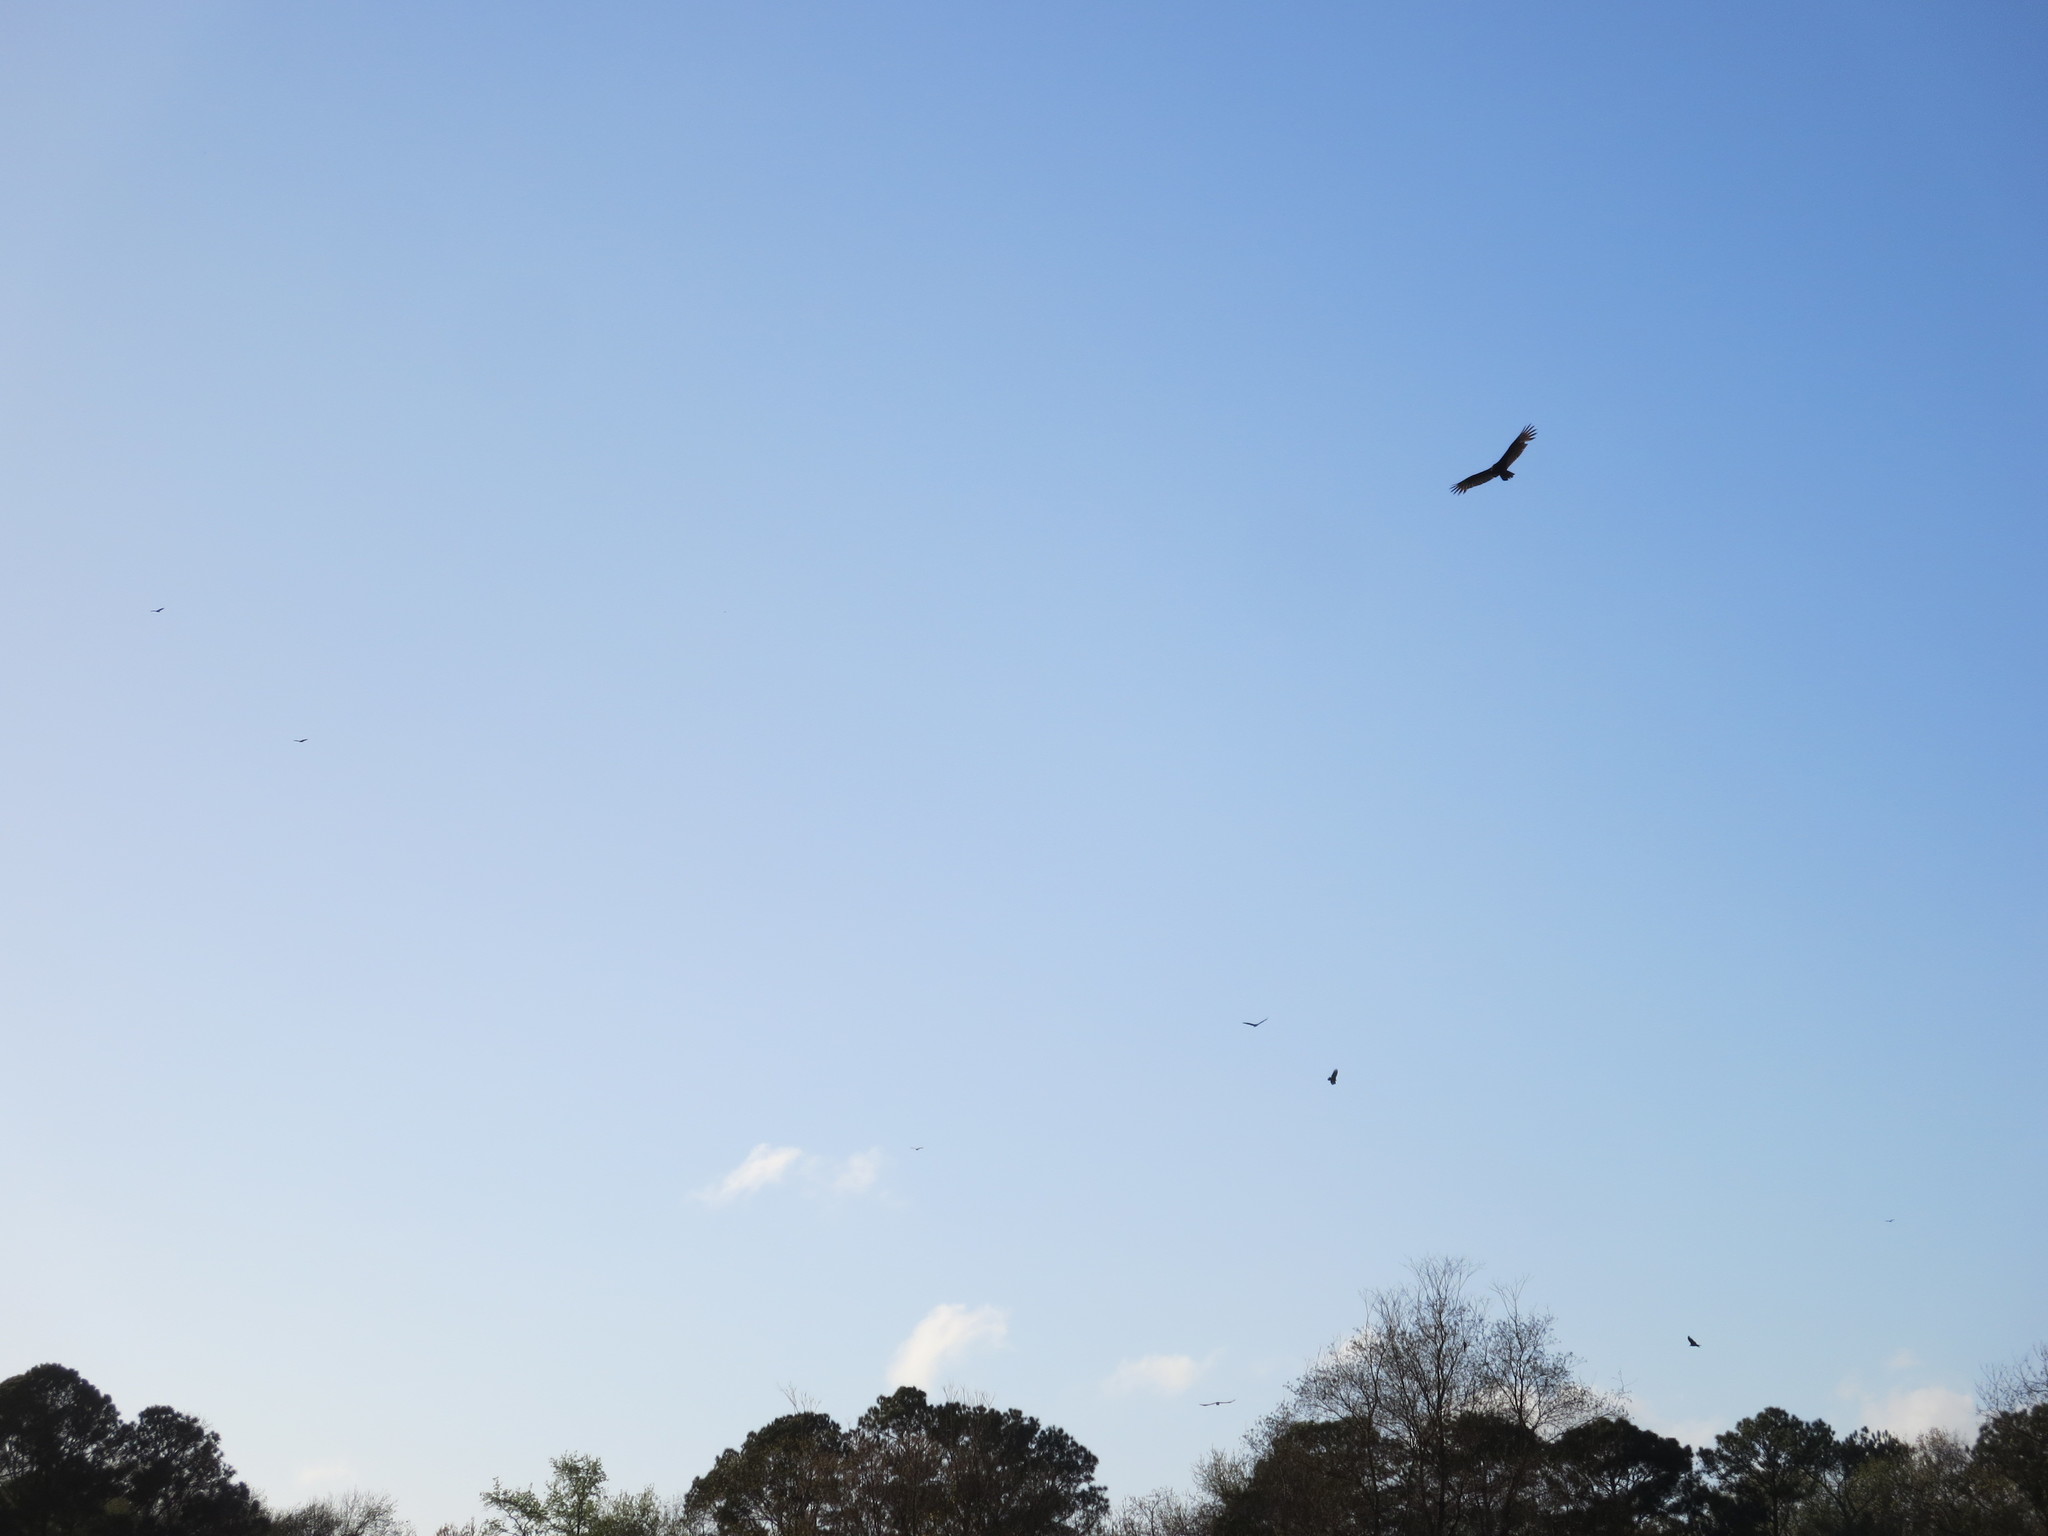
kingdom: Animalia
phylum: Chordata
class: Aves
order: Accipitriformes
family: Cathartidae
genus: Cathartes
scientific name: Cathartes aura
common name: Turkey vulture
